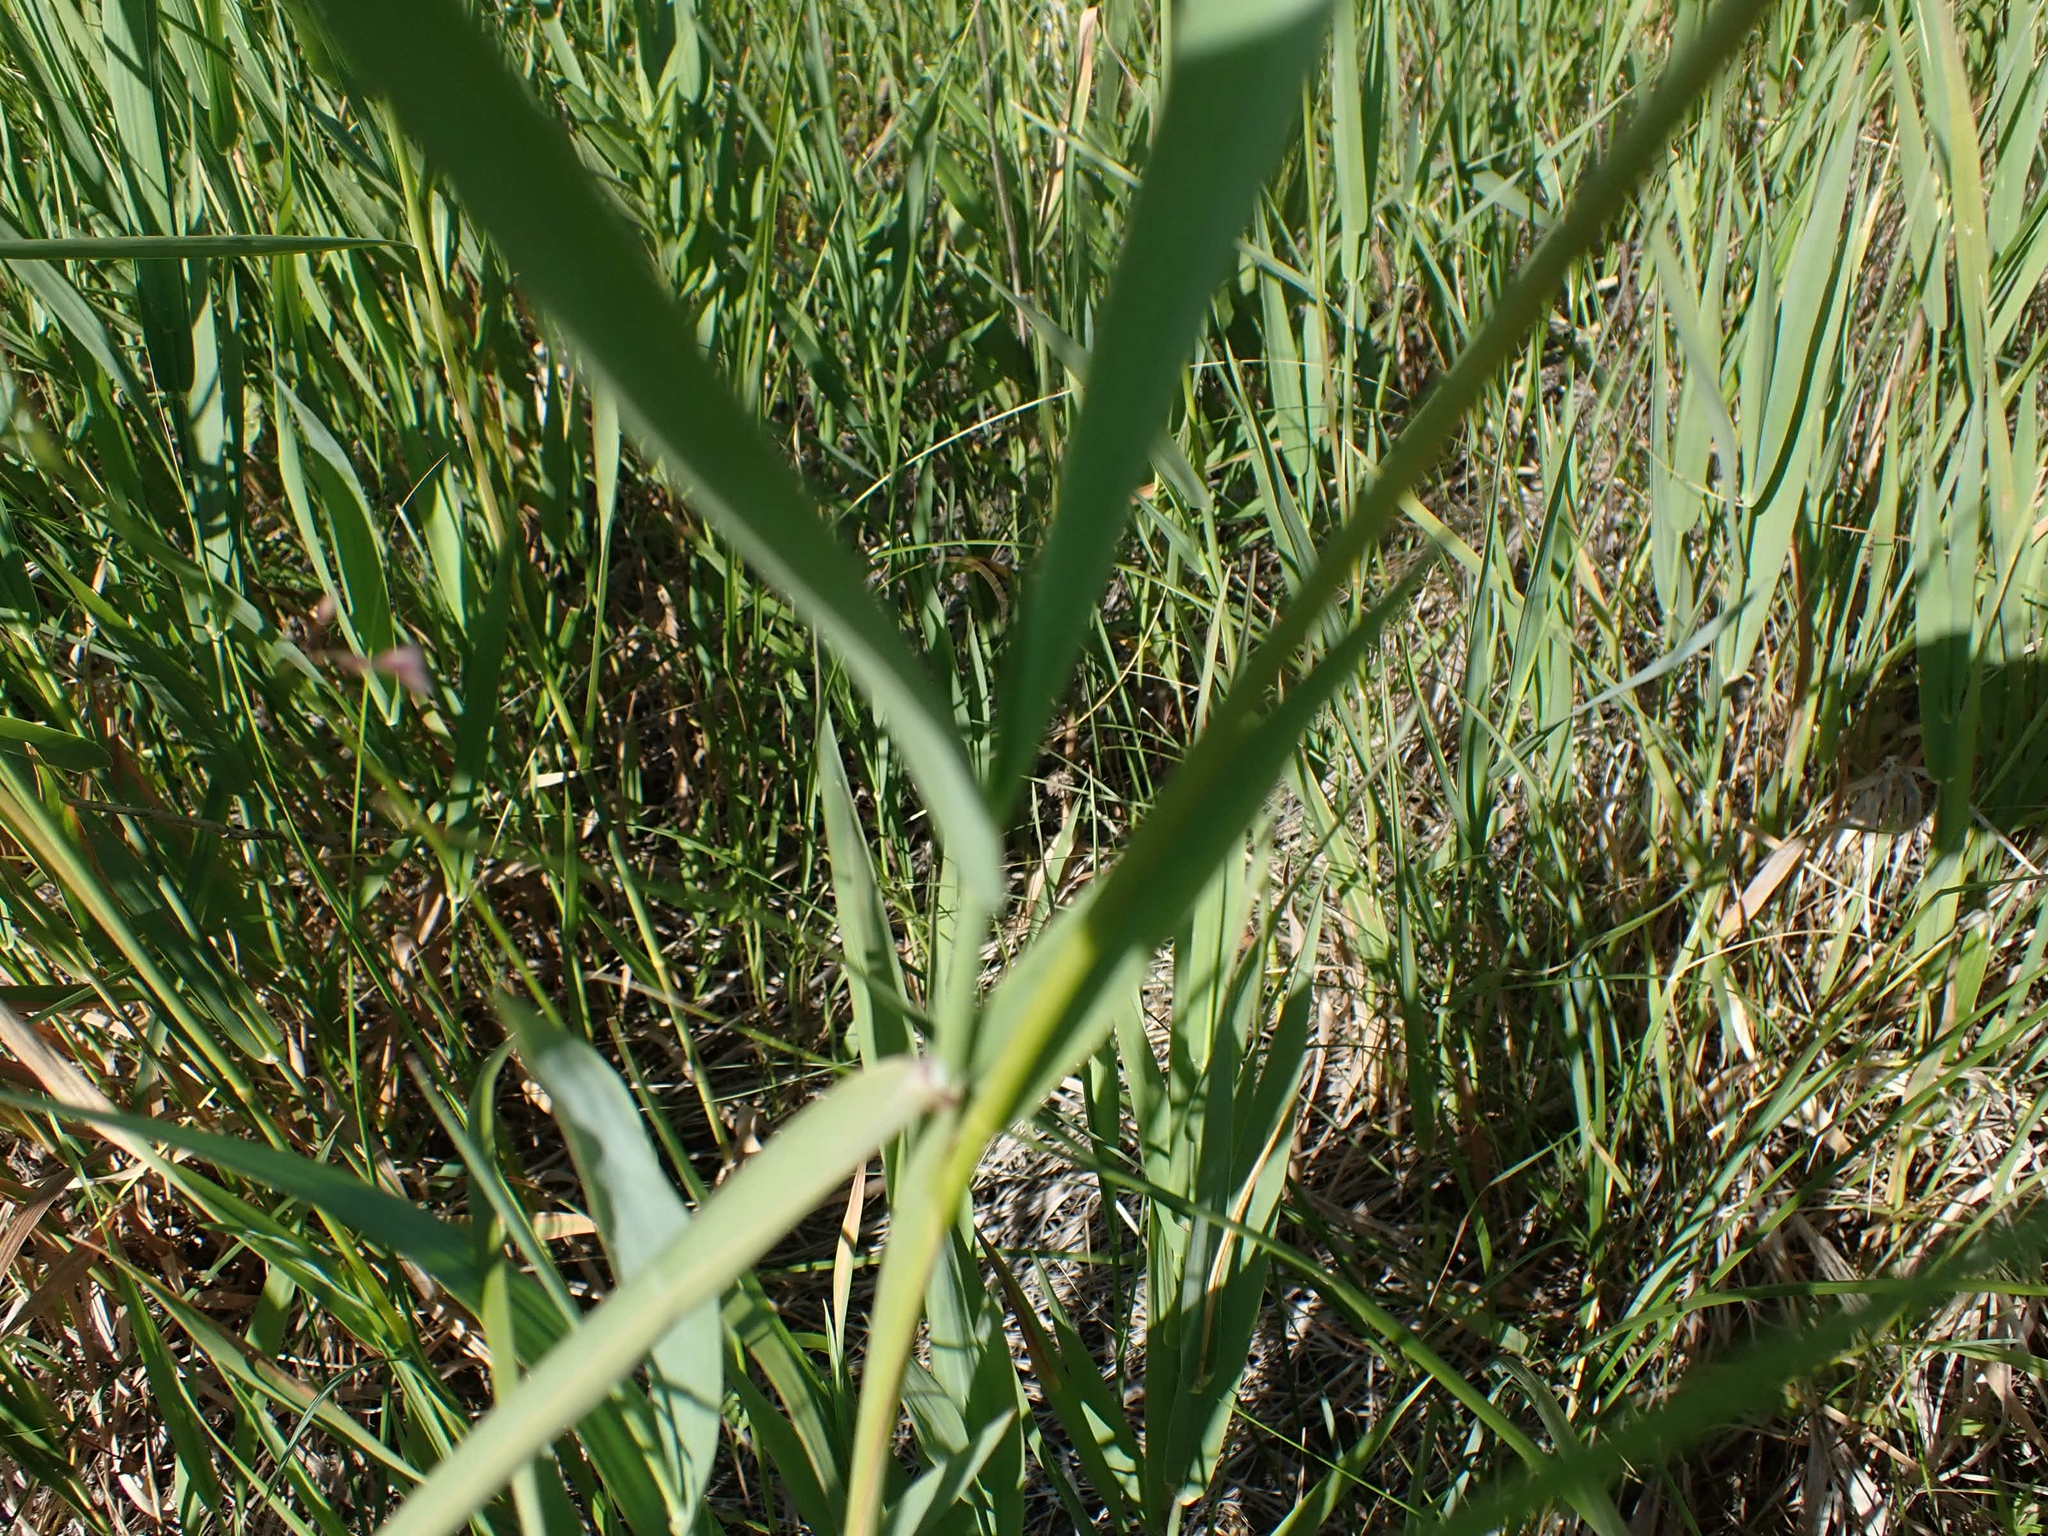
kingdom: Plantae
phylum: Tracheophyta
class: Liliopsida
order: Poales
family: Poaceae
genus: Phalaris
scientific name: Phalaris arundinacea
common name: Reed canary-grass
